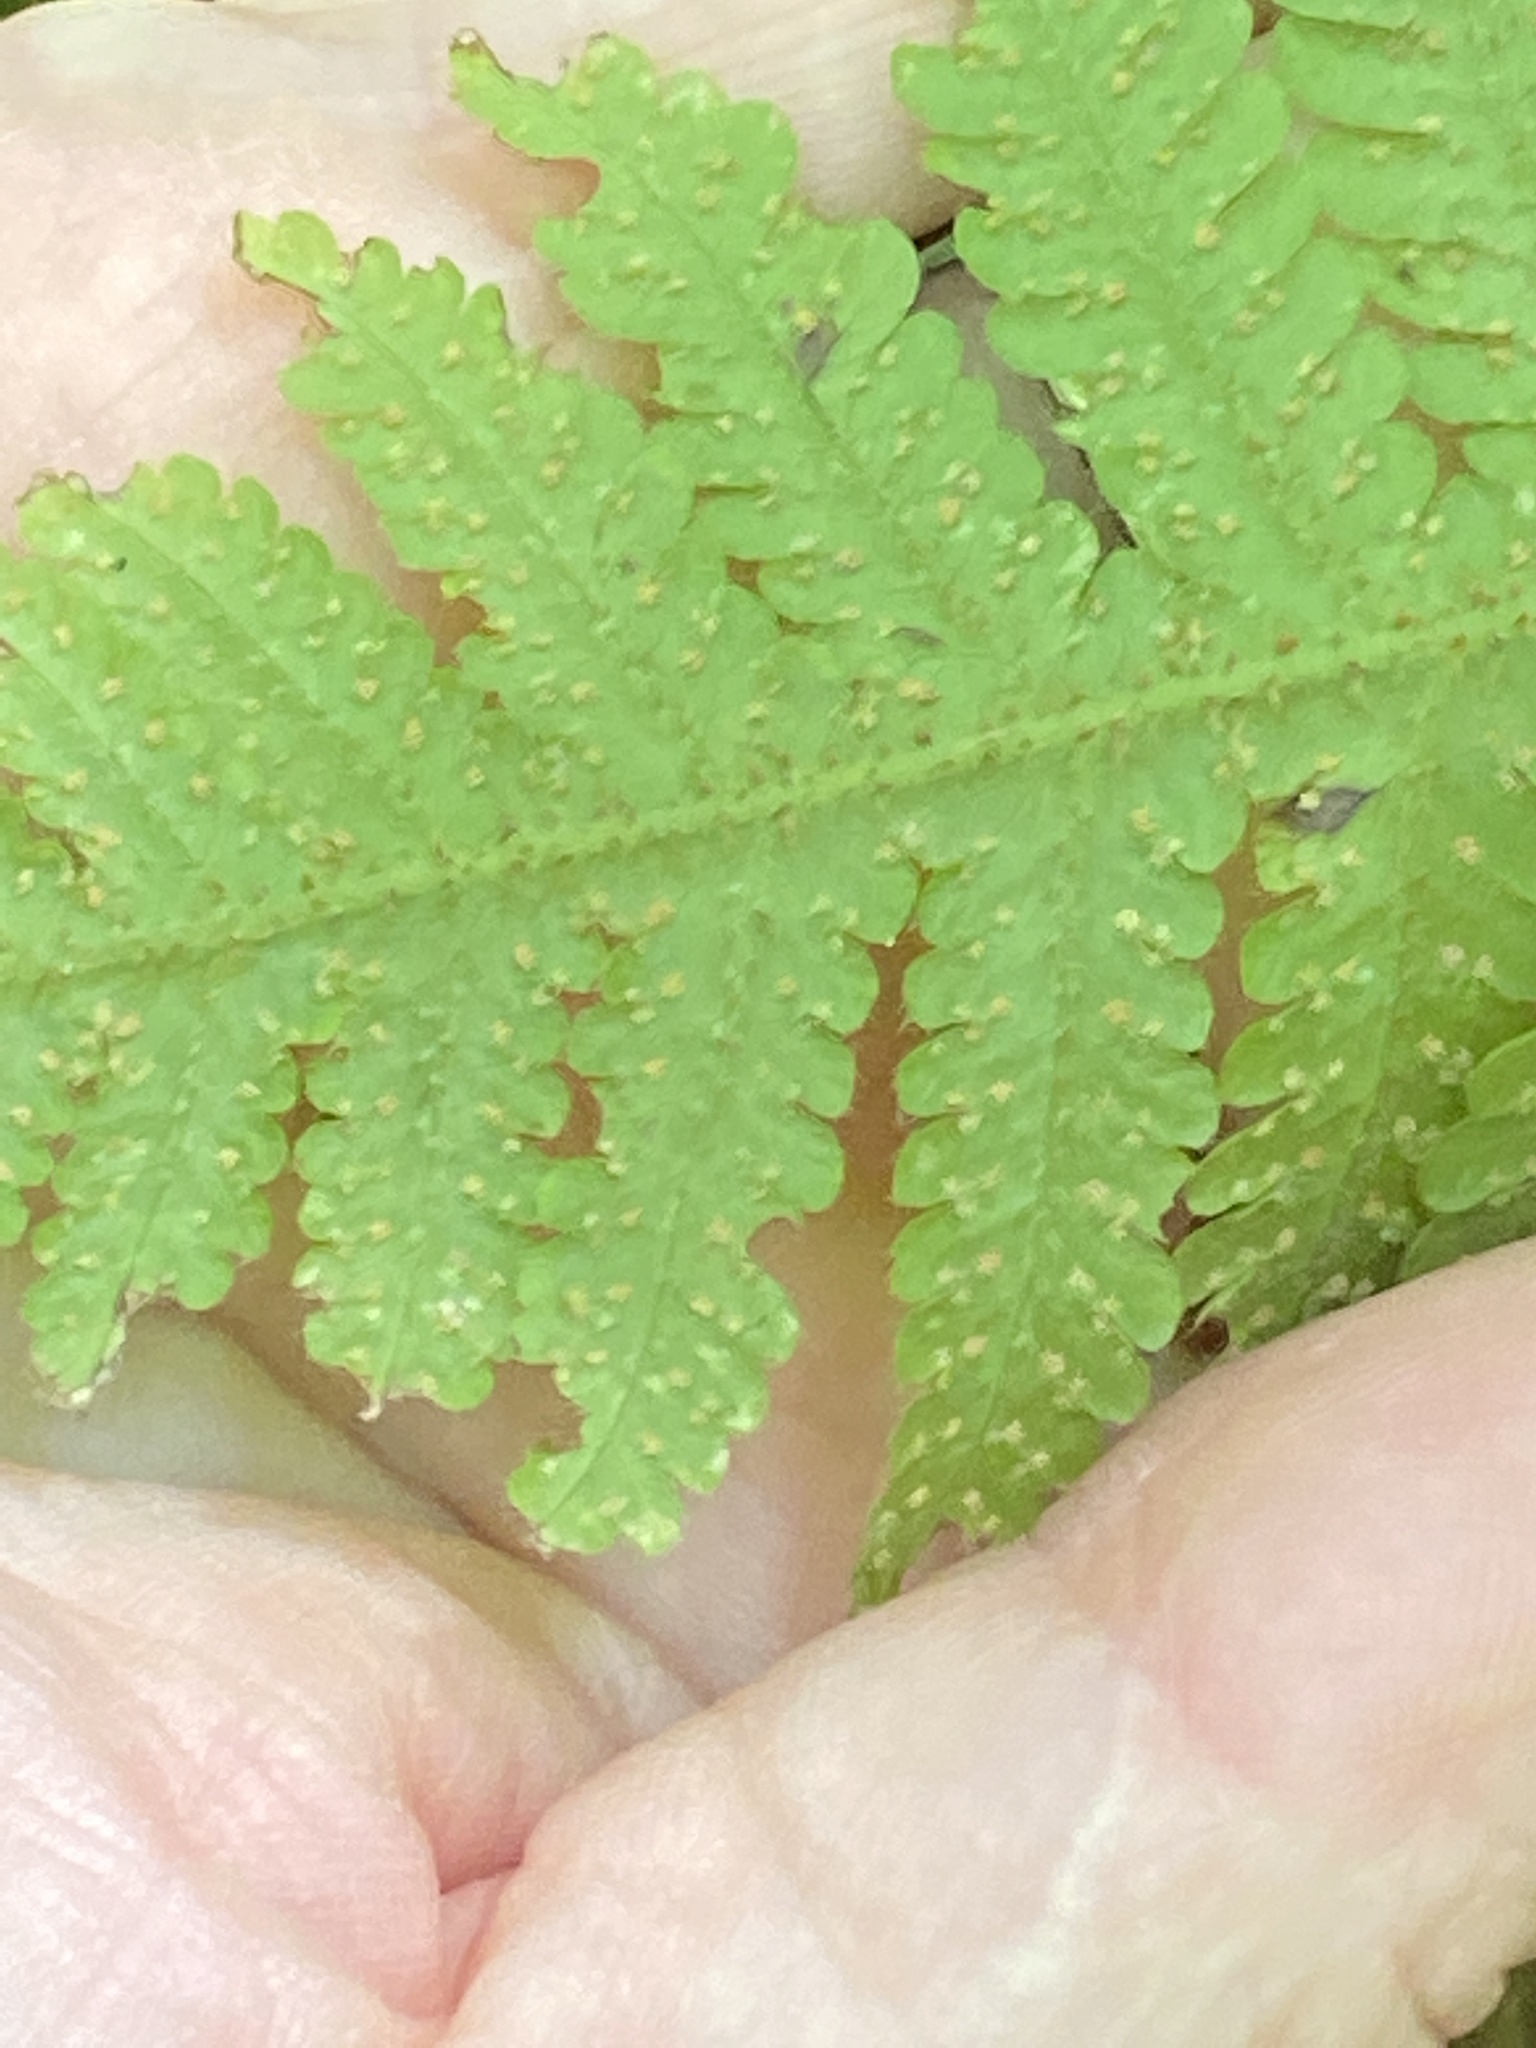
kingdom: Plantae
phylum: Tracheophyta
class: Polypodiopsida
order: Polypodiales
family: Thelypteridaceae
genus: Phegopteris
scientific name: Phegopteris connectilis
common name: Beech fern
